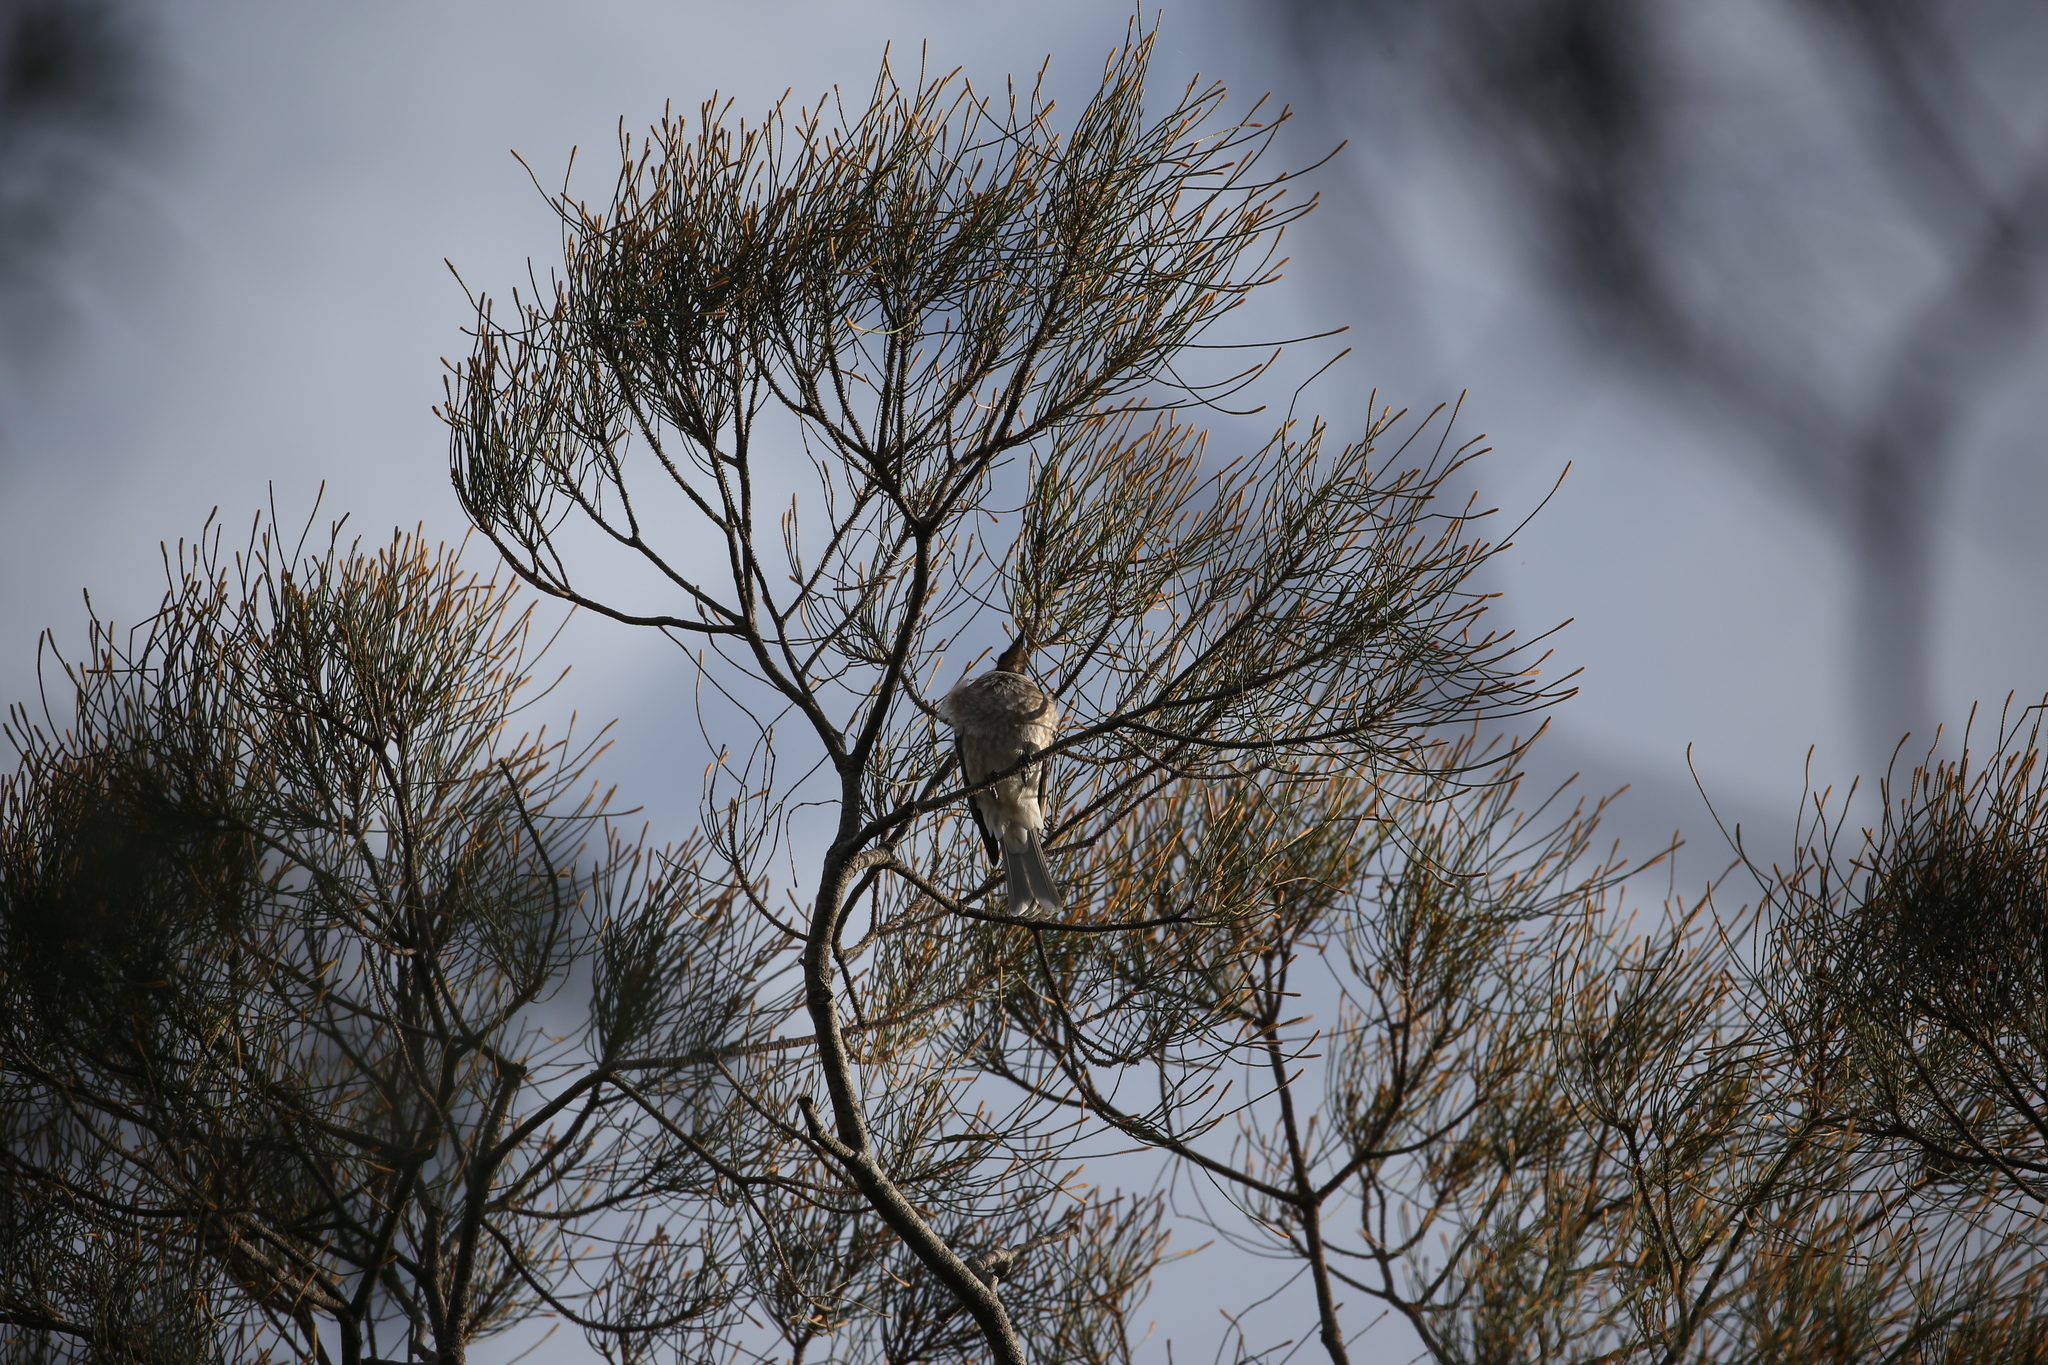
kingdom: Animalia
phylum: Chordata
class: Aves
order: Passeriformes
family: Meliphagidae
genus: Philemon
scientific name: Philemon corniculatus
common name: Noisy friarbird
